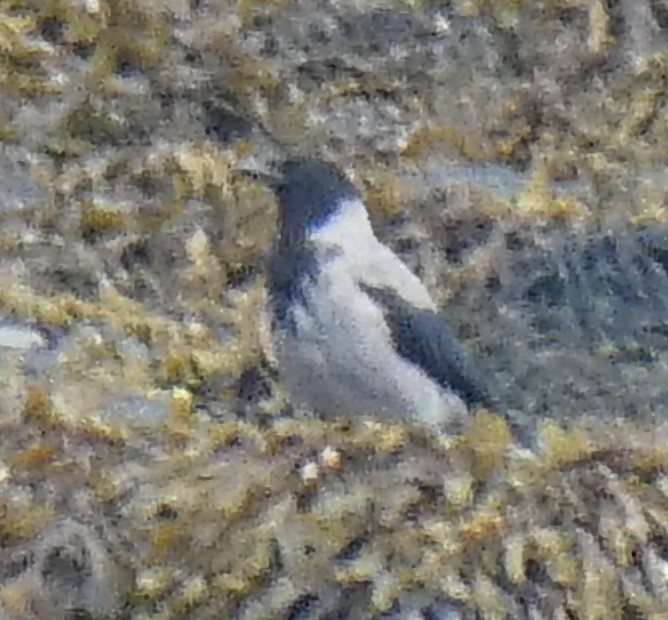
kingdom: Animalia
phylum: Chordata
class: Aves
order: Passeriformes
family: Corvidae
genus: Corvus
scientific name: Corvus cornix
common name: Hooded crow
